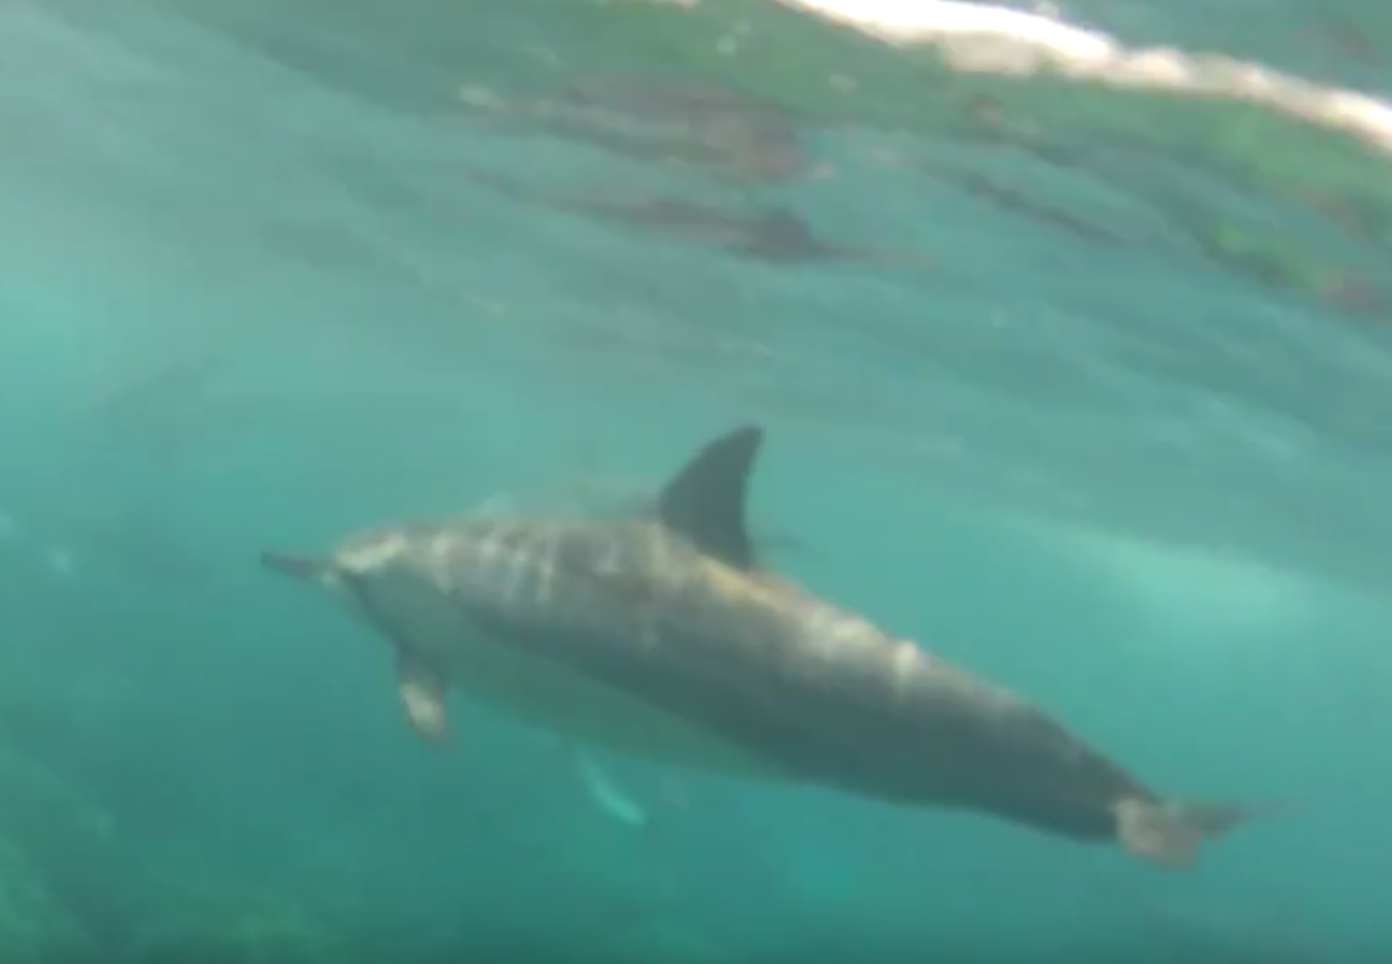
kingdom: Animalia
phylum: Chordata
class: Mammalia
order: Cetacea
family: Delphinidae
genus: Stenella
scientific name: Stenella longirostris
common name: Spinner dolphin
